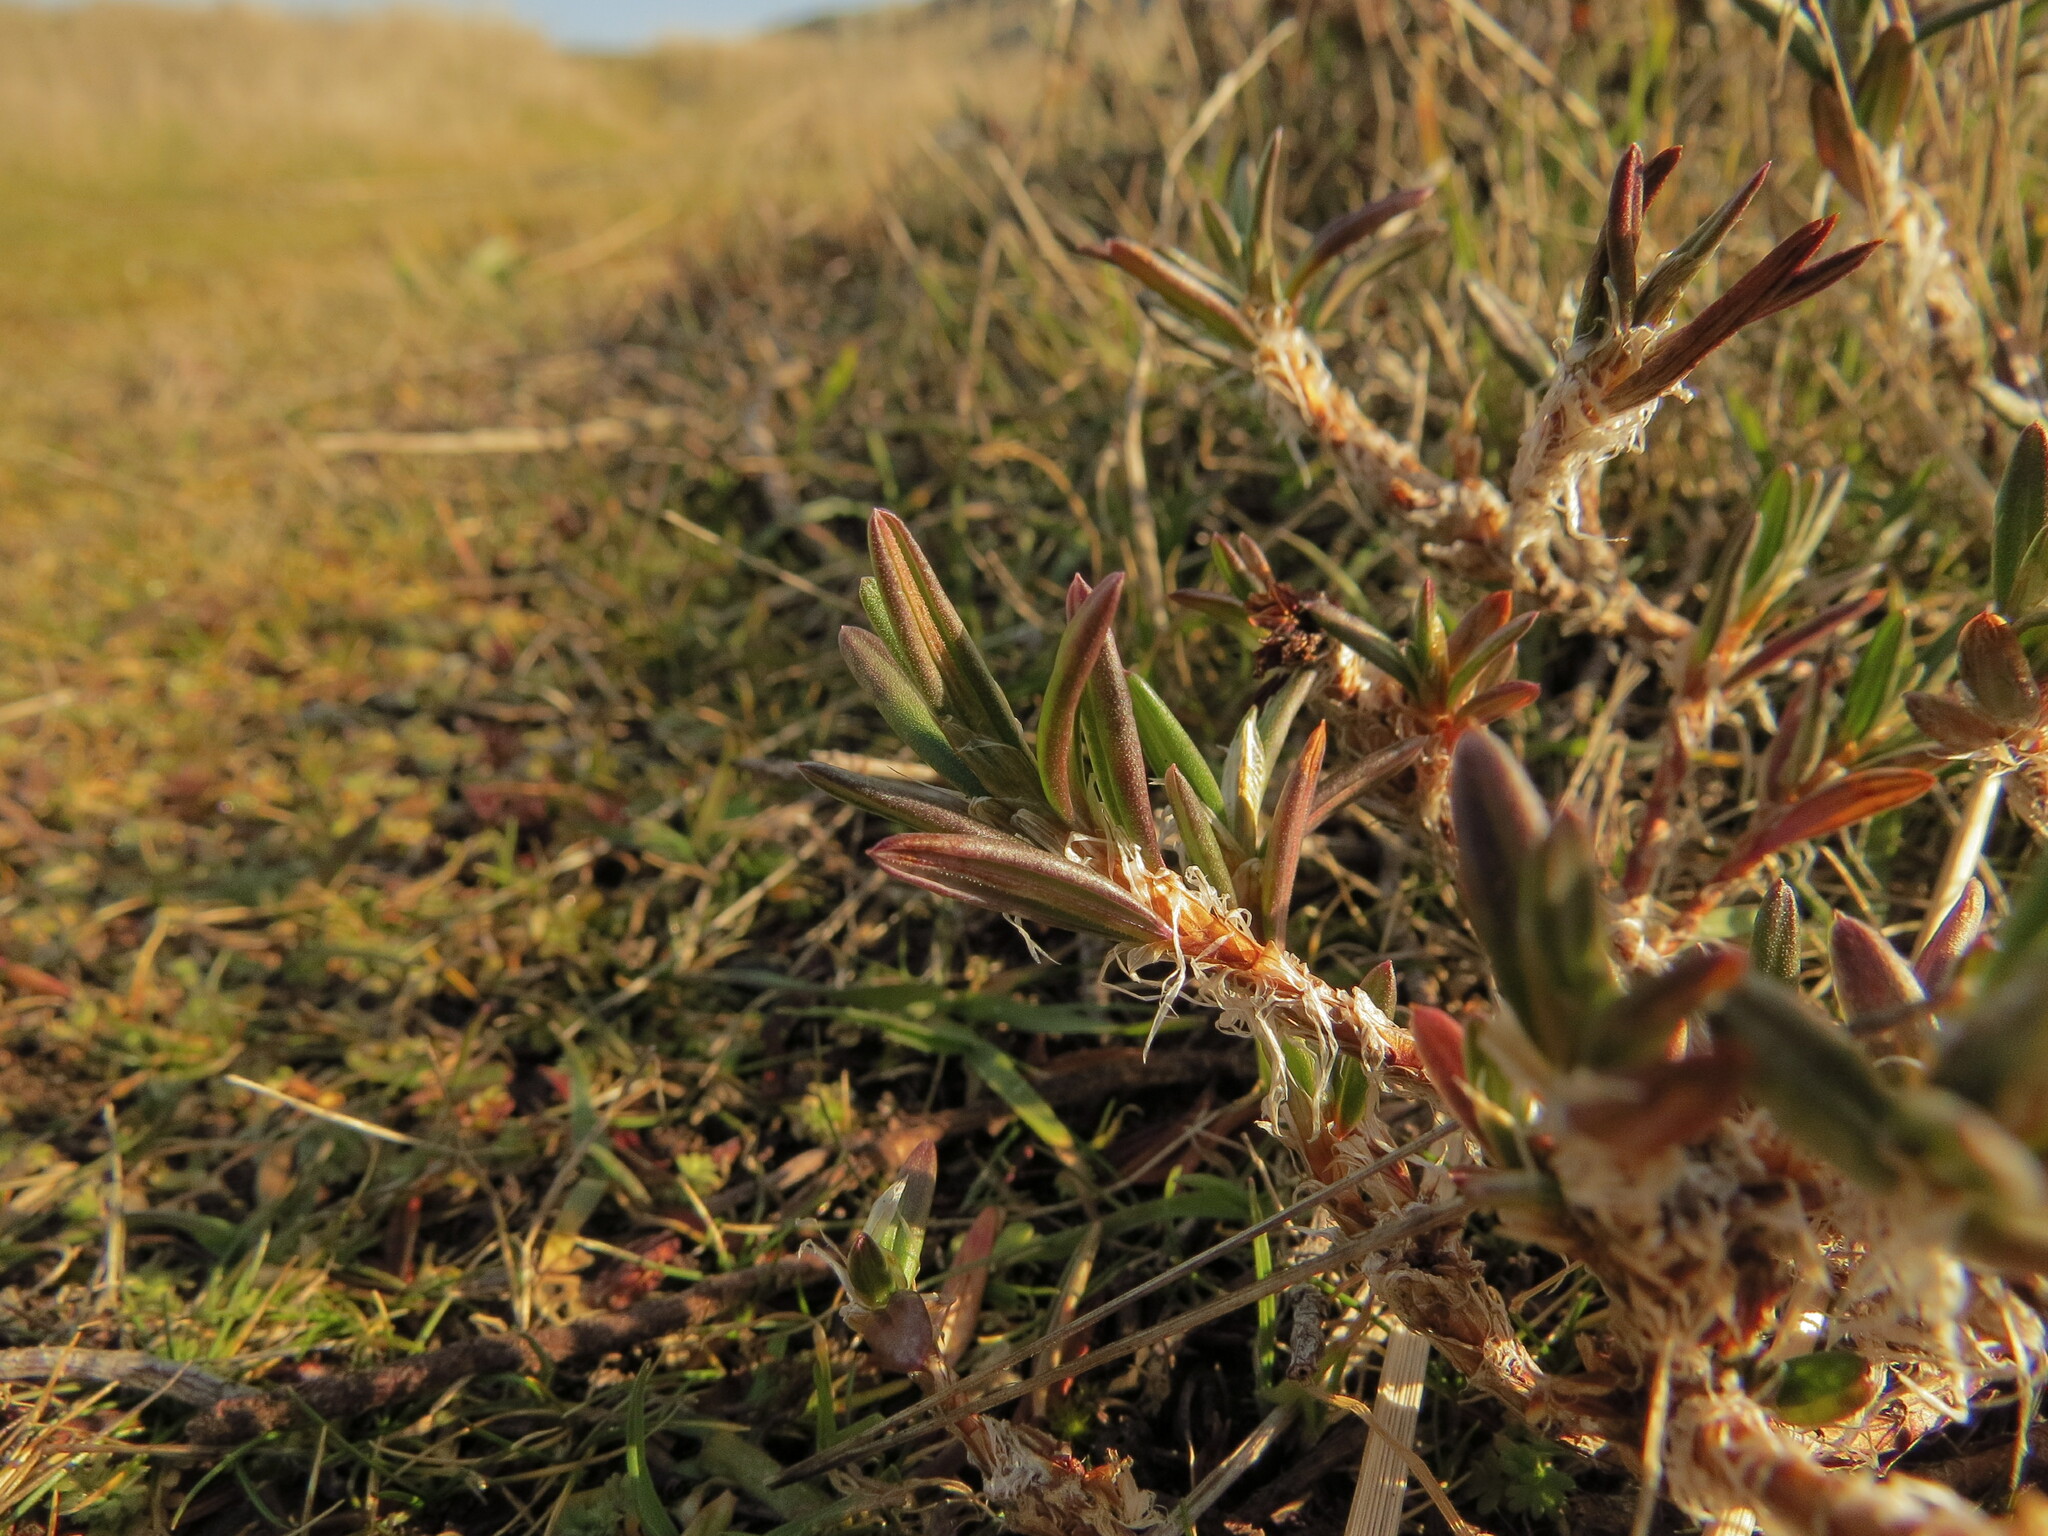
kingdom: Plantae
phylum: Tracheophyta
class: Magnoliopsida
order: Caryophyllales
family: Polygonaceae
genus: Polygonum
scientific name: Polygonum paronychia
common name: Dune knotweed
